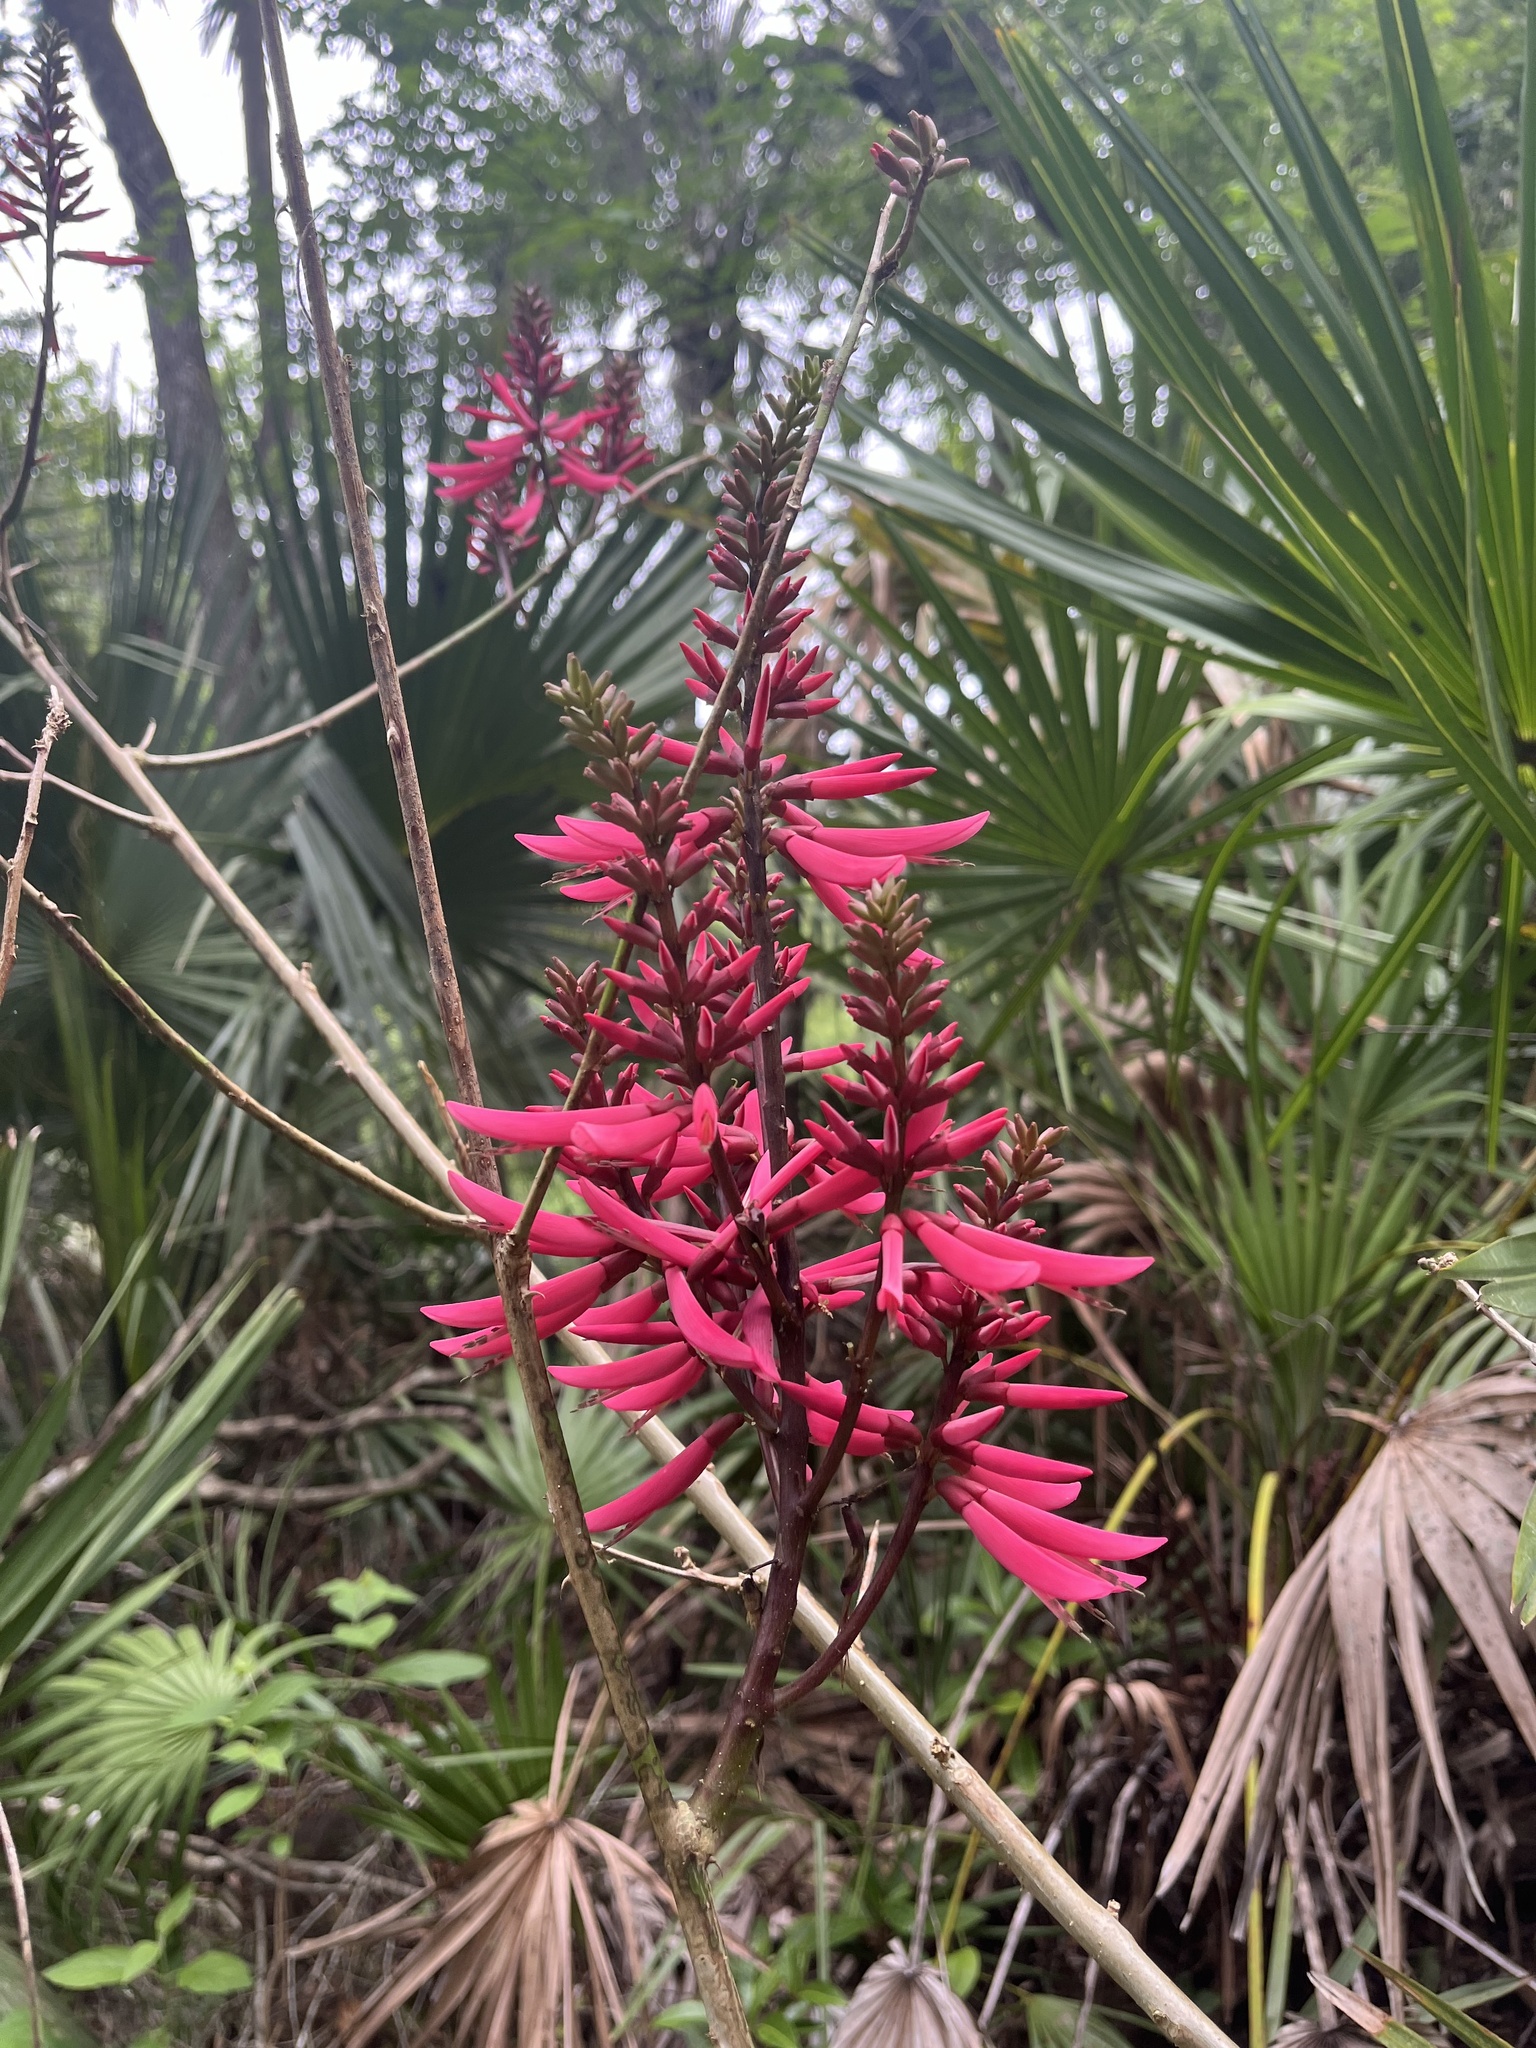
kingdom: Plantae
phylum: Tracheophyta
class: Magnoliopsida
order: Fabales
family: Fabaceae
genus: Erythrina
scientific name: Erythrina herbacea
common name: Coral-bean
